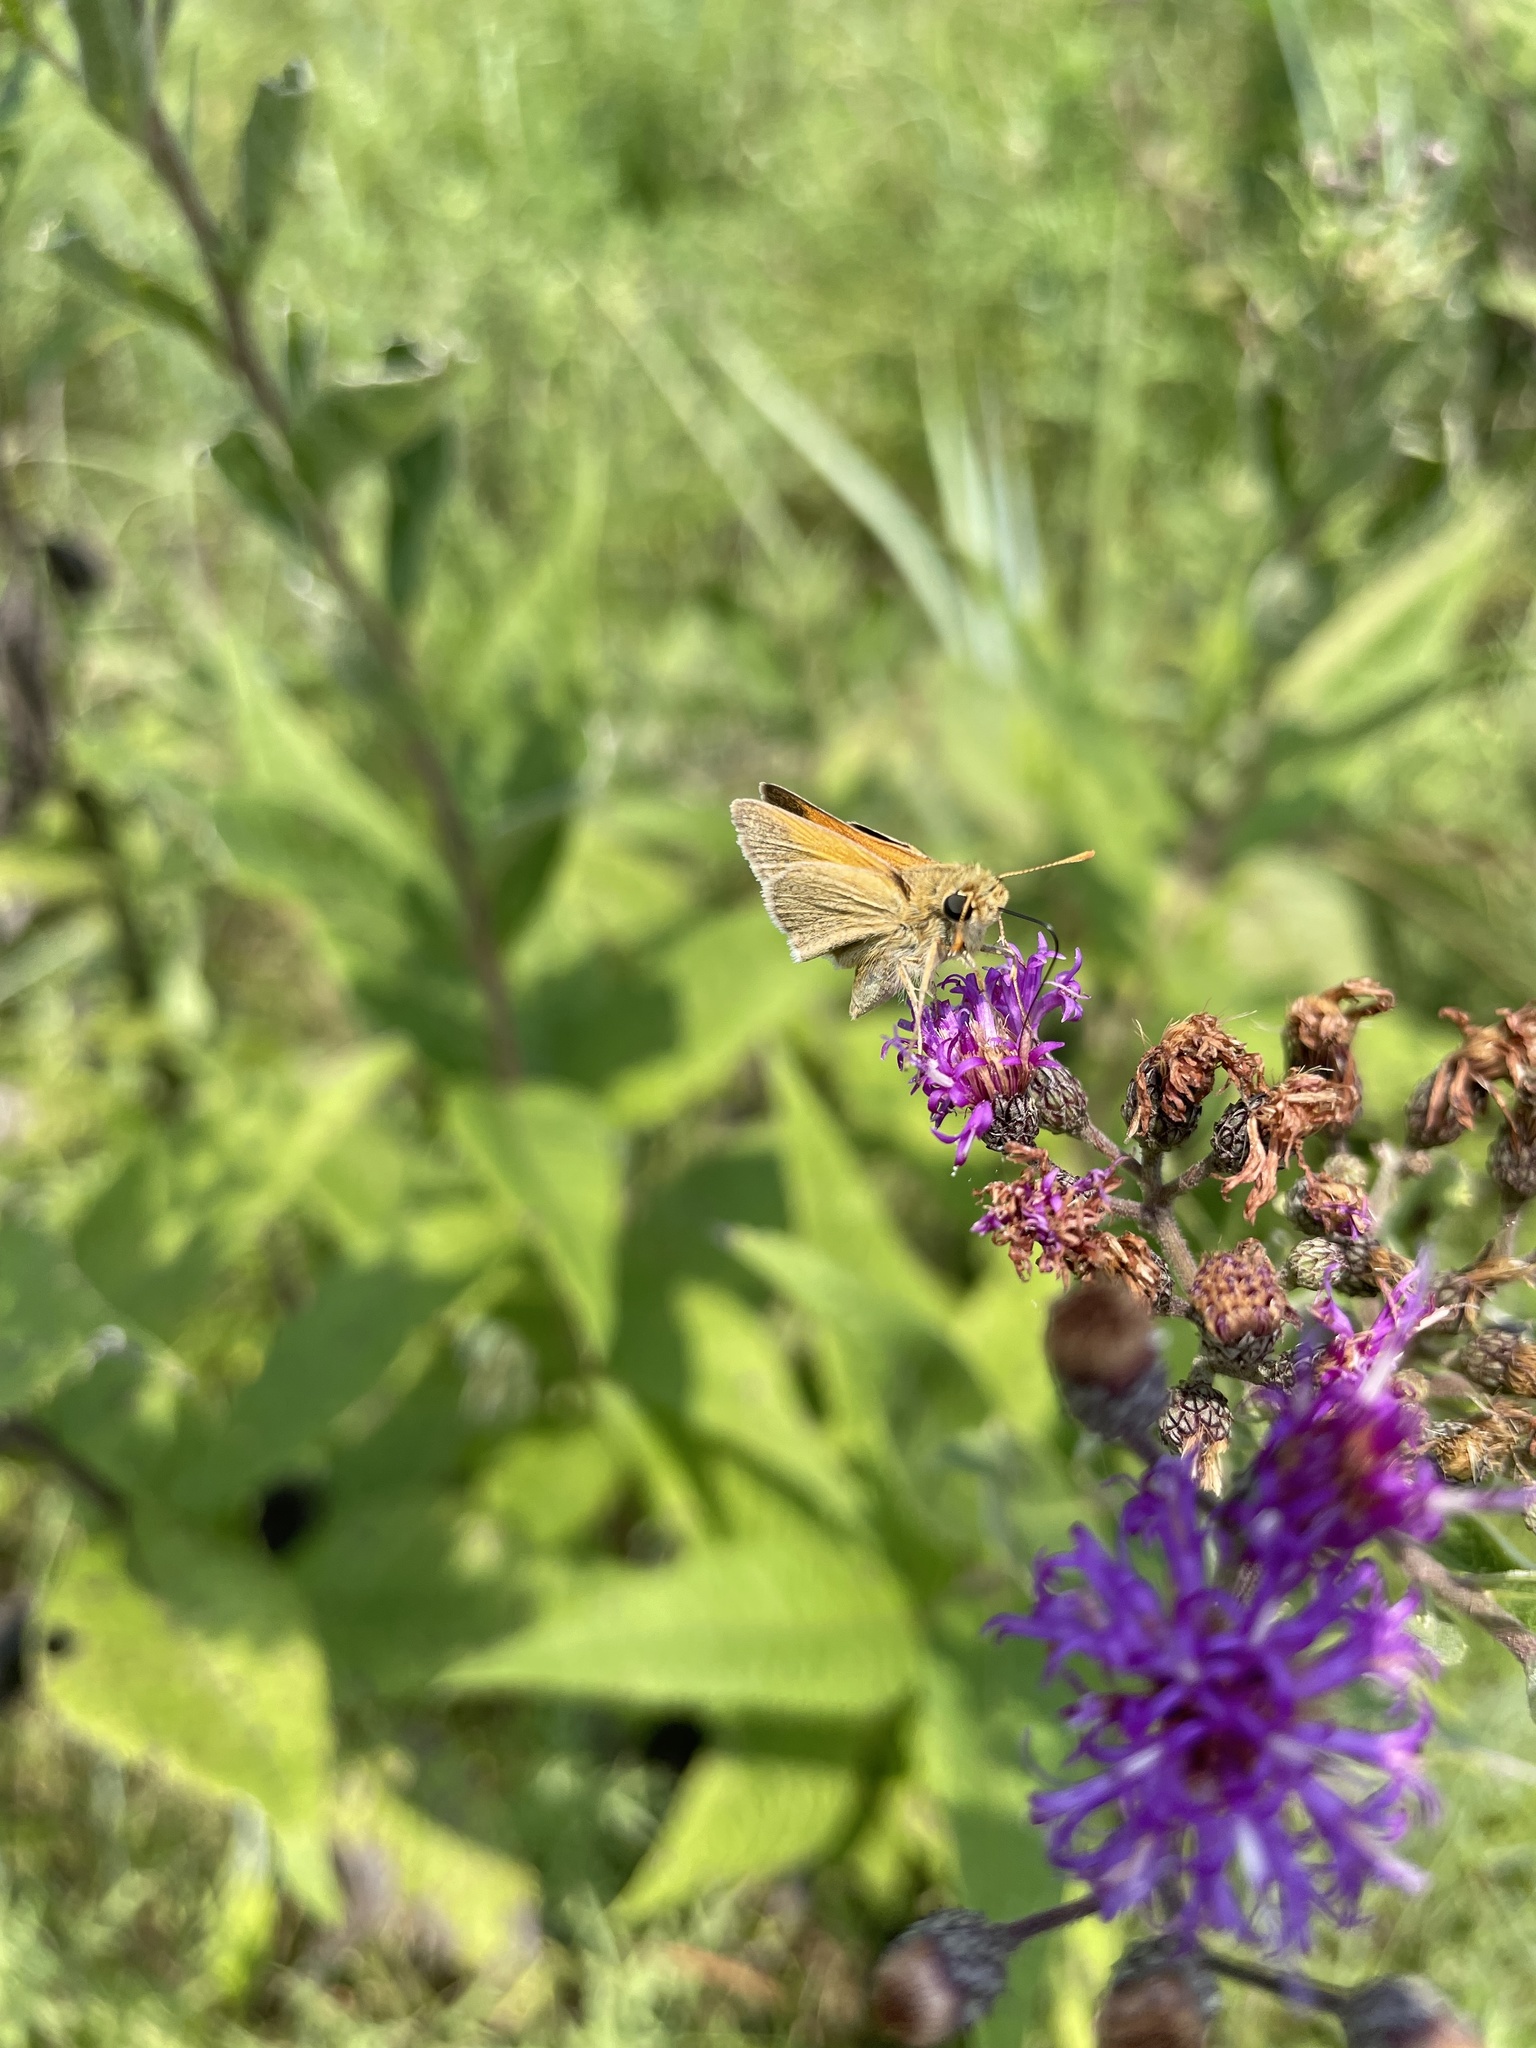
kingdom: Animalia
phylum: Arthropoda
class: Insecta
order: Lepidoptera
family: Hesperiidae
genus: Polites
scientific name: Polites themistocles
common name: Tawny-edged skipper
